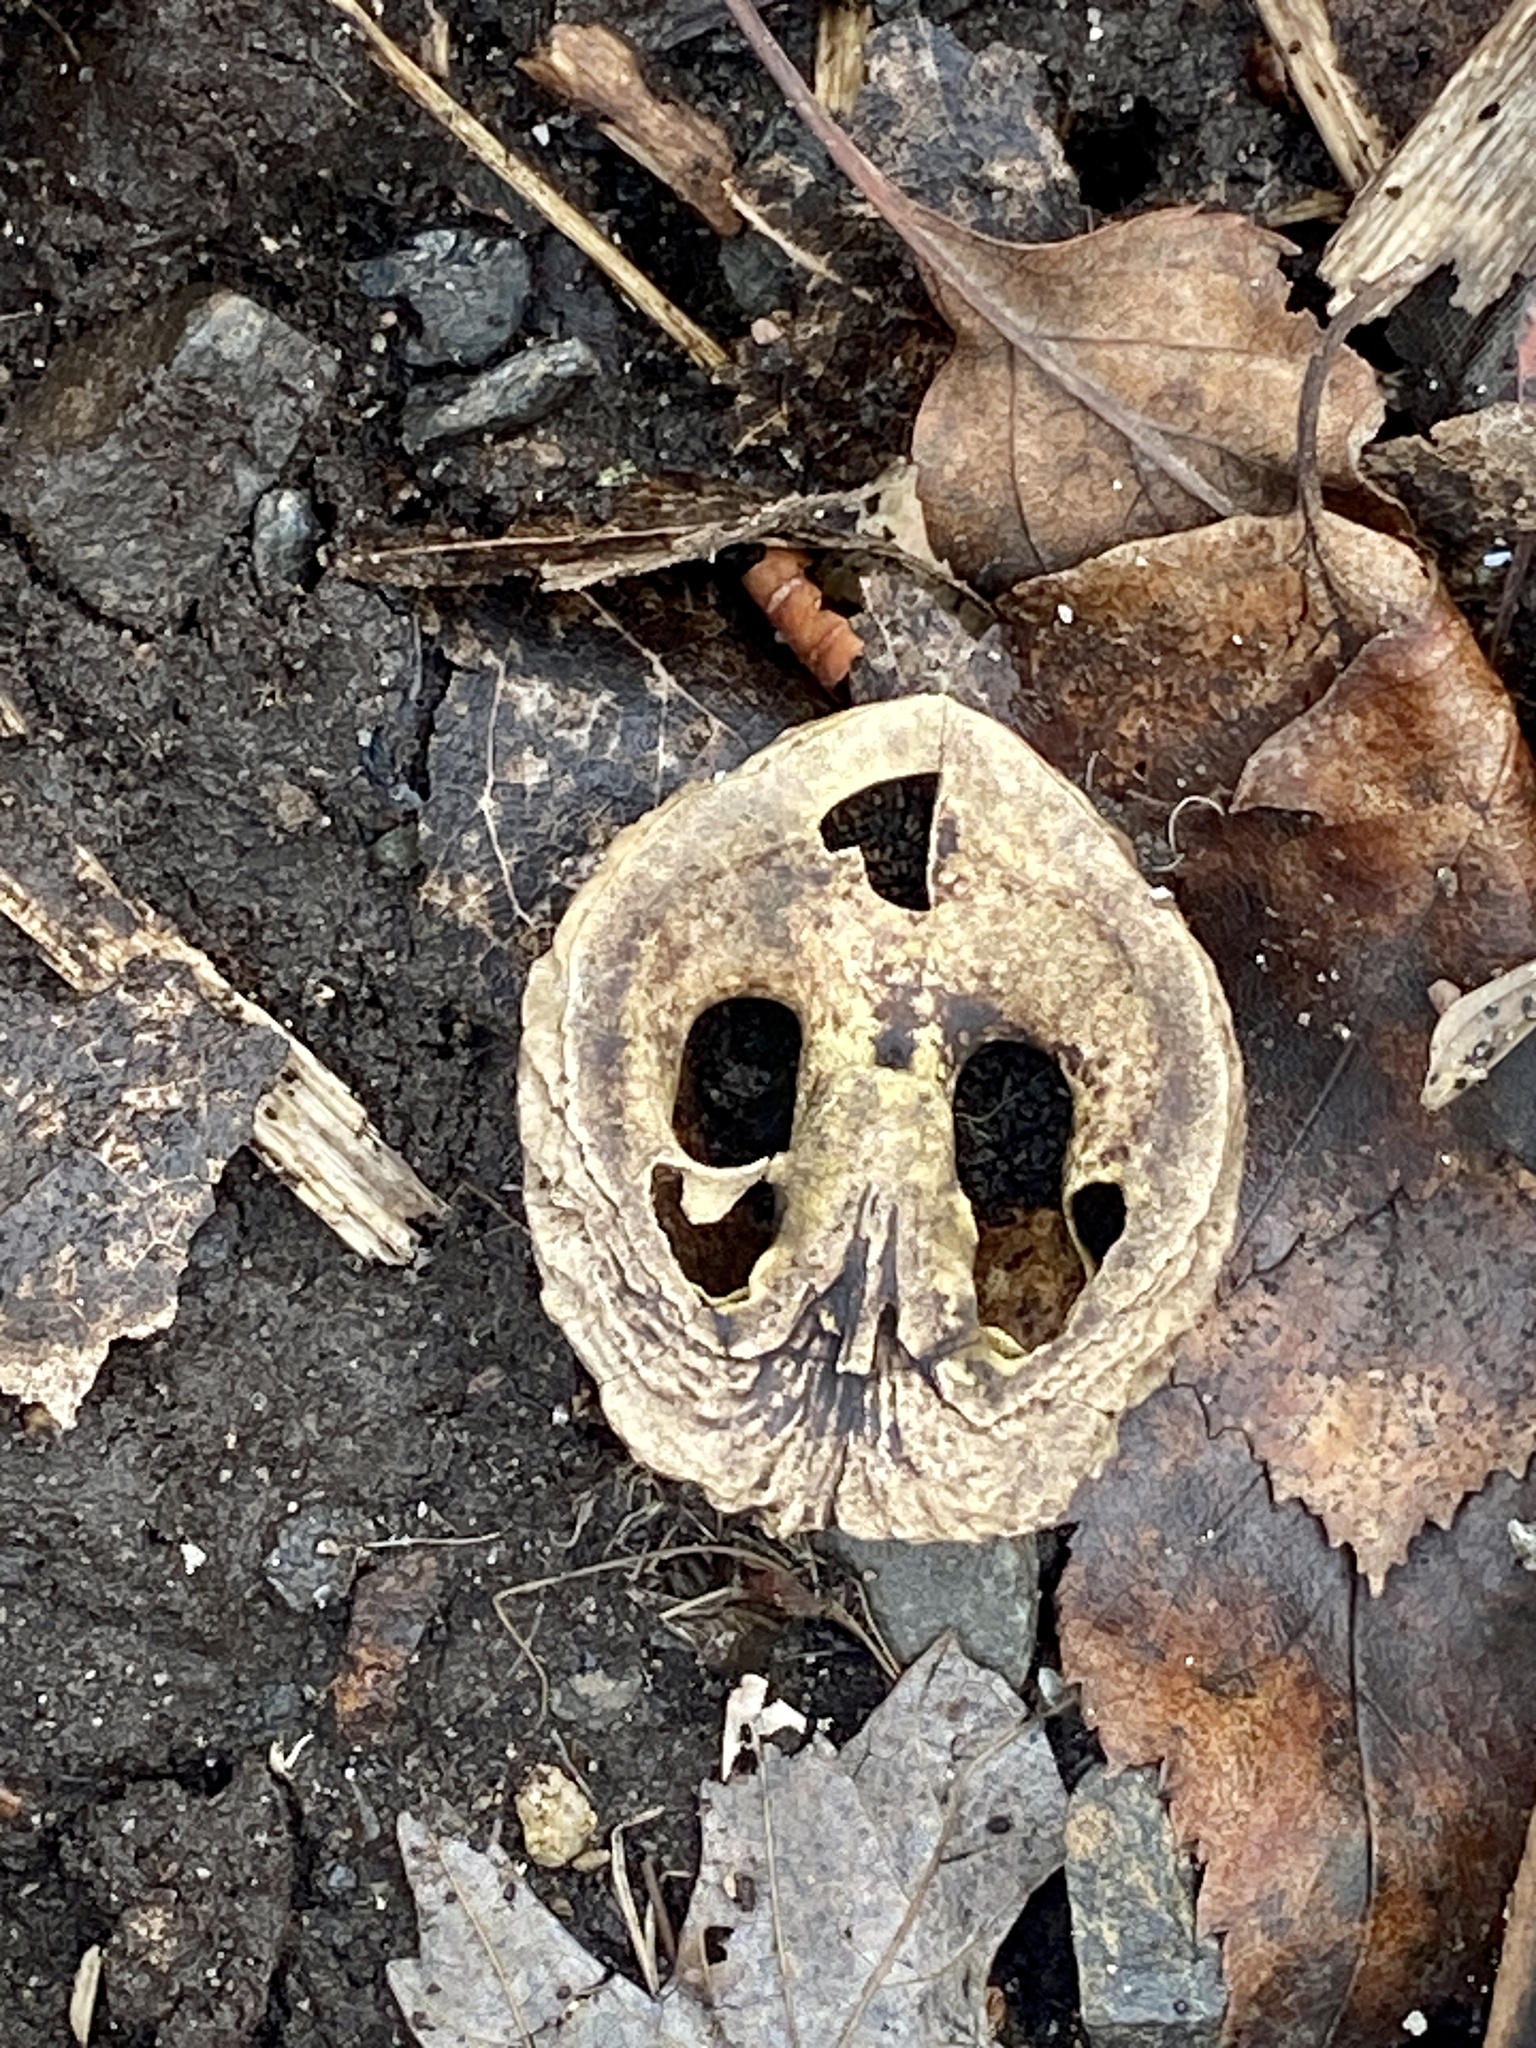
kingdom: Plantae
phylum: Tracheophyta
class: Magnoliopsida
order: Fagales
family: Juglandaceae
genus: Juglans
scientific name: Juglans nigra
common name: Black walnut
